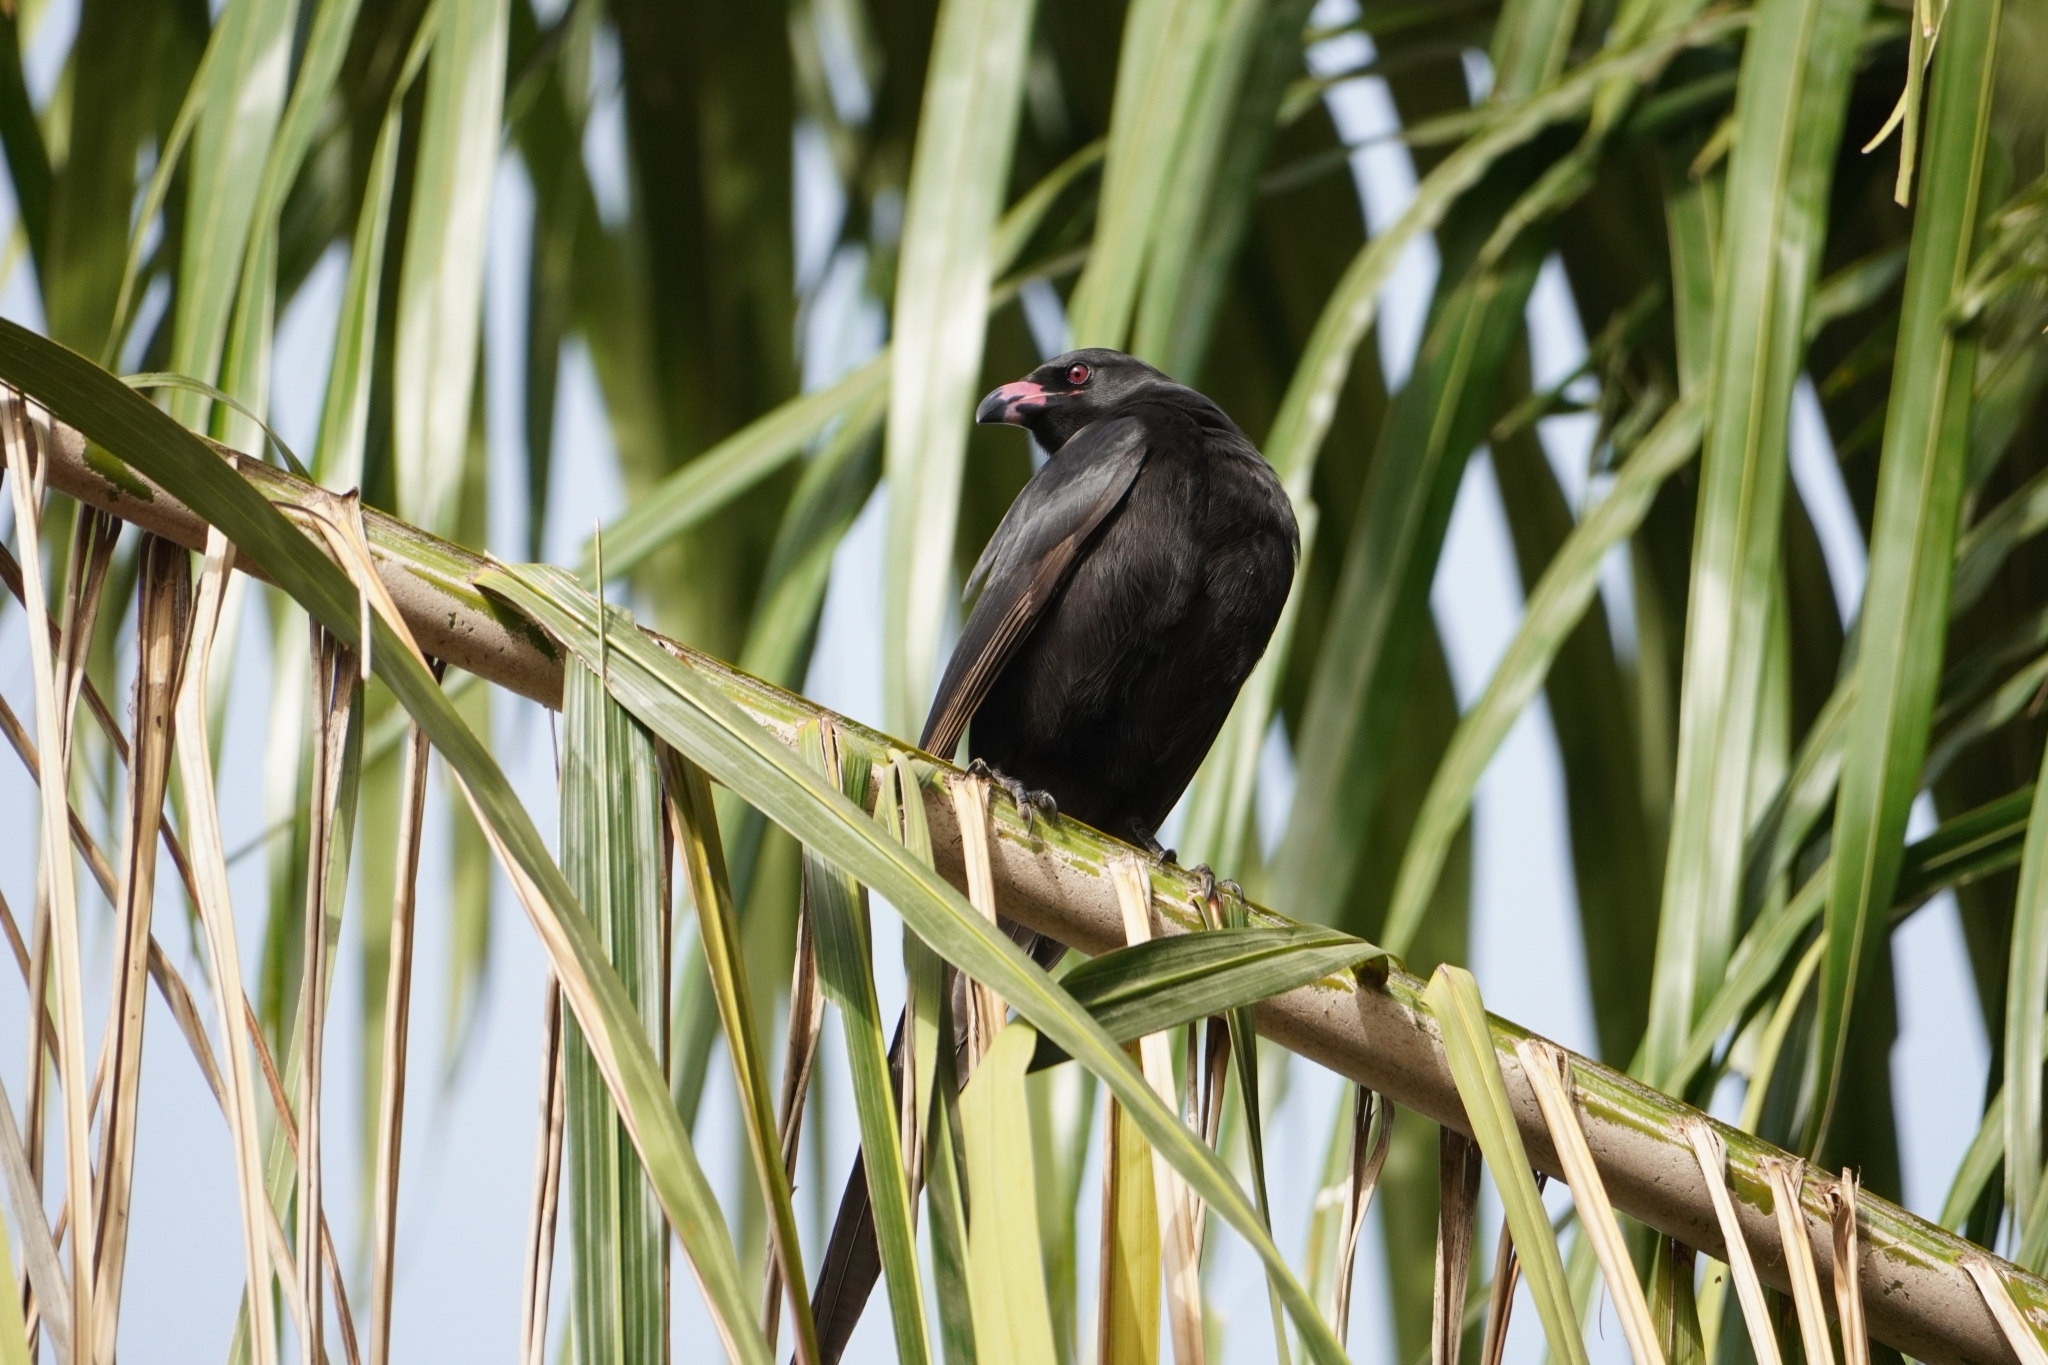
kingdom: Animalia
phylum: Chordata
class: Aves
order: Passeriformes
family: Corvidae
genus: Ptilostomus
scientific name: Ptilostomus afer
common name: Piapiac
